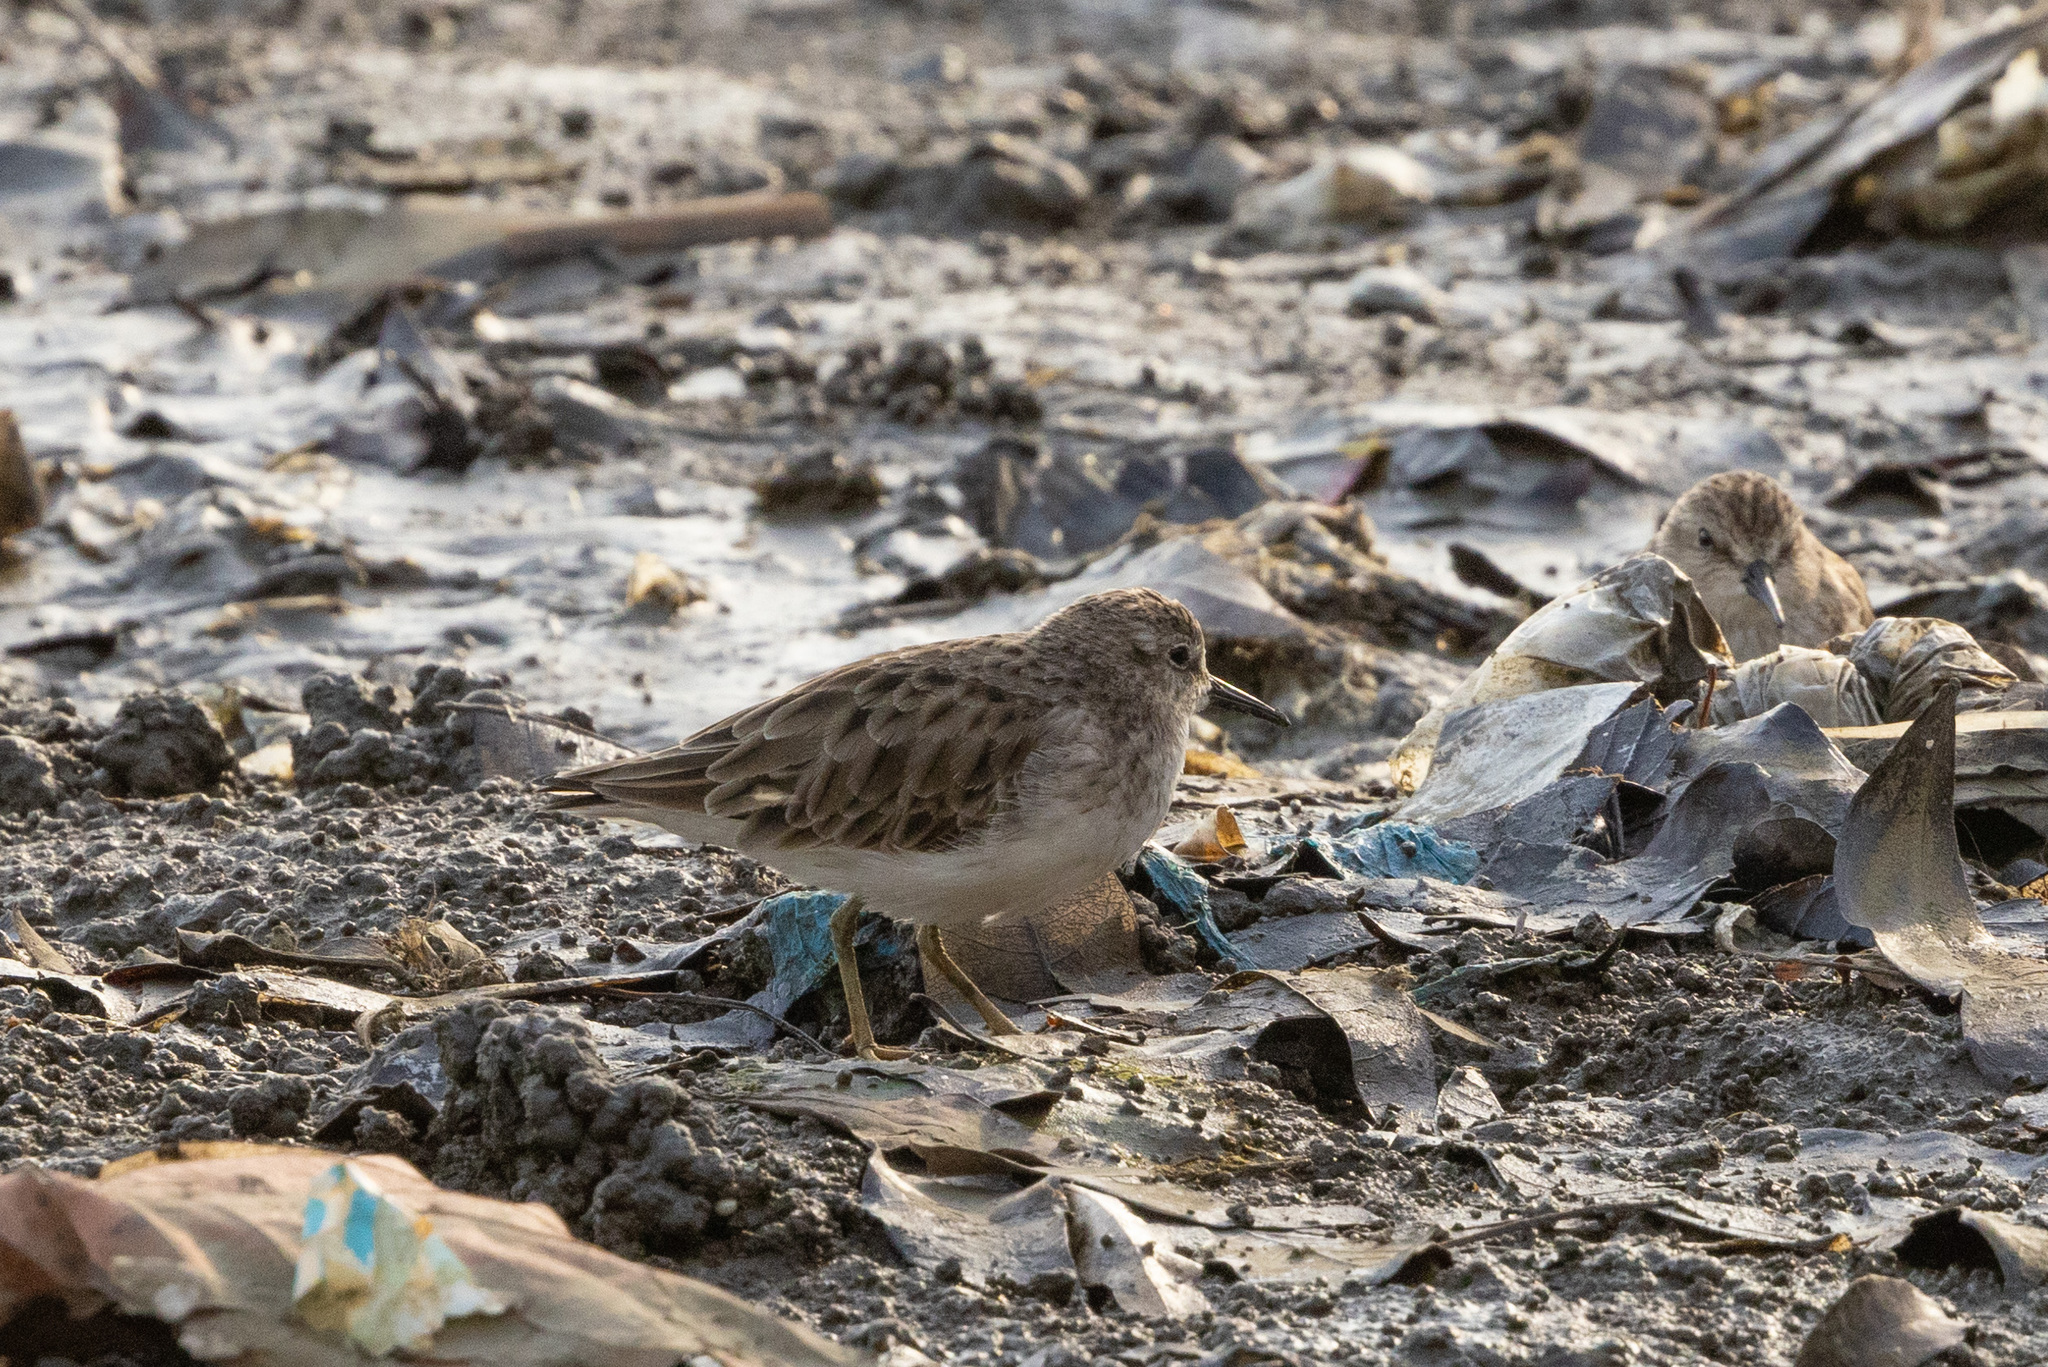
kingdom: Animalia
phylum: Chordata
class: Aves
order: Charadriiformes
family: Scolopacidae
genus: Calidris
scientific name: Calidris minutilla
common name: Least sandpiper
